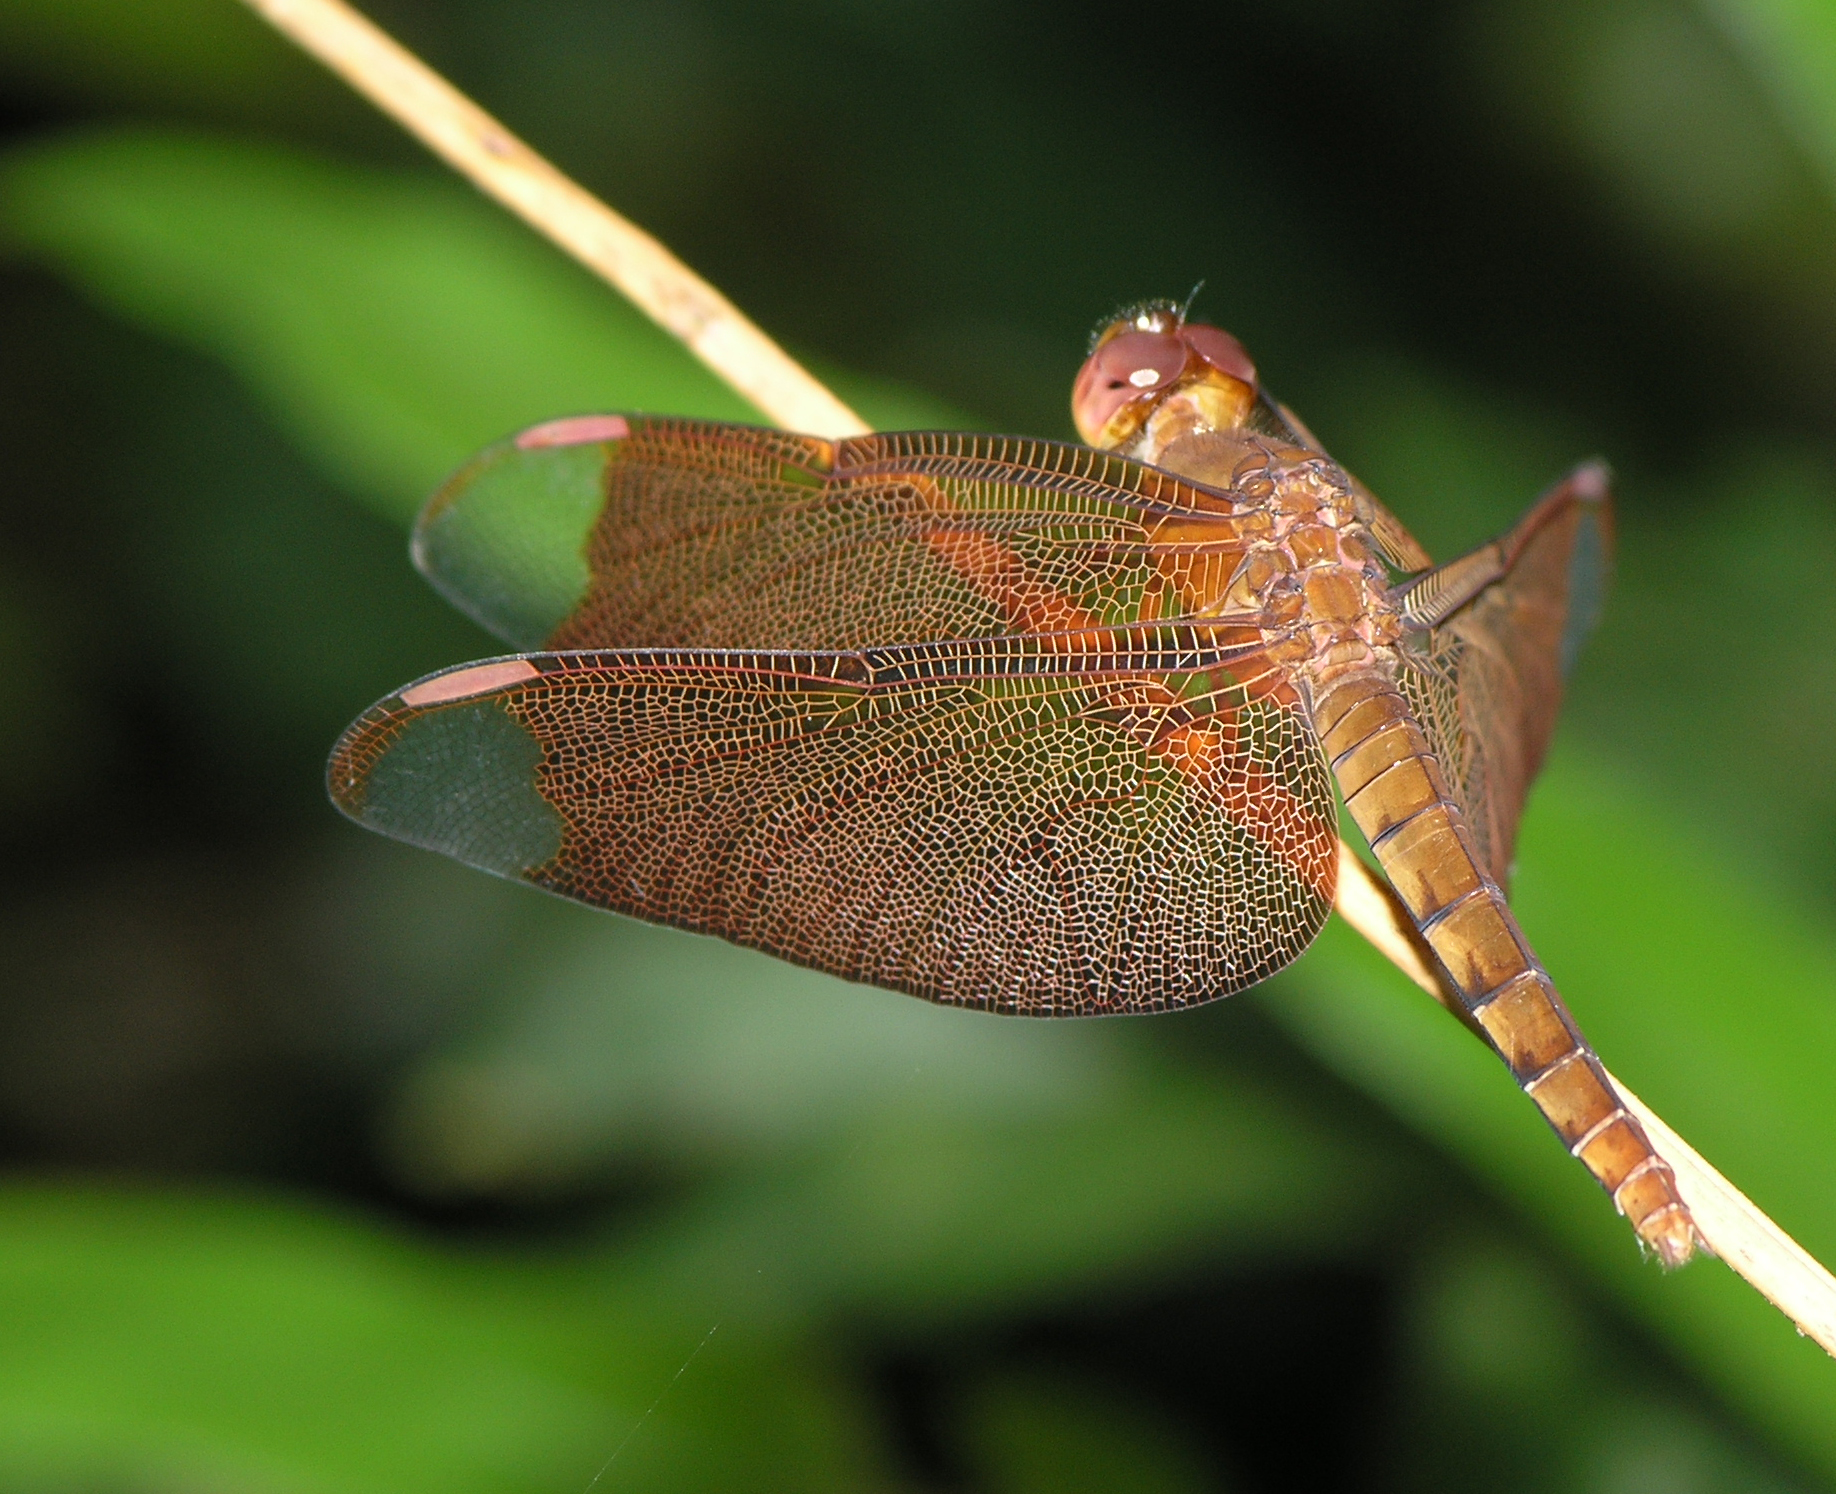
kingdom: Animalia
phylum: Arthropoda
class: Insecta
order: Odonata
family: Libellulidae
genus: Neurothemis
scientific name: Neurothemis fulvia
